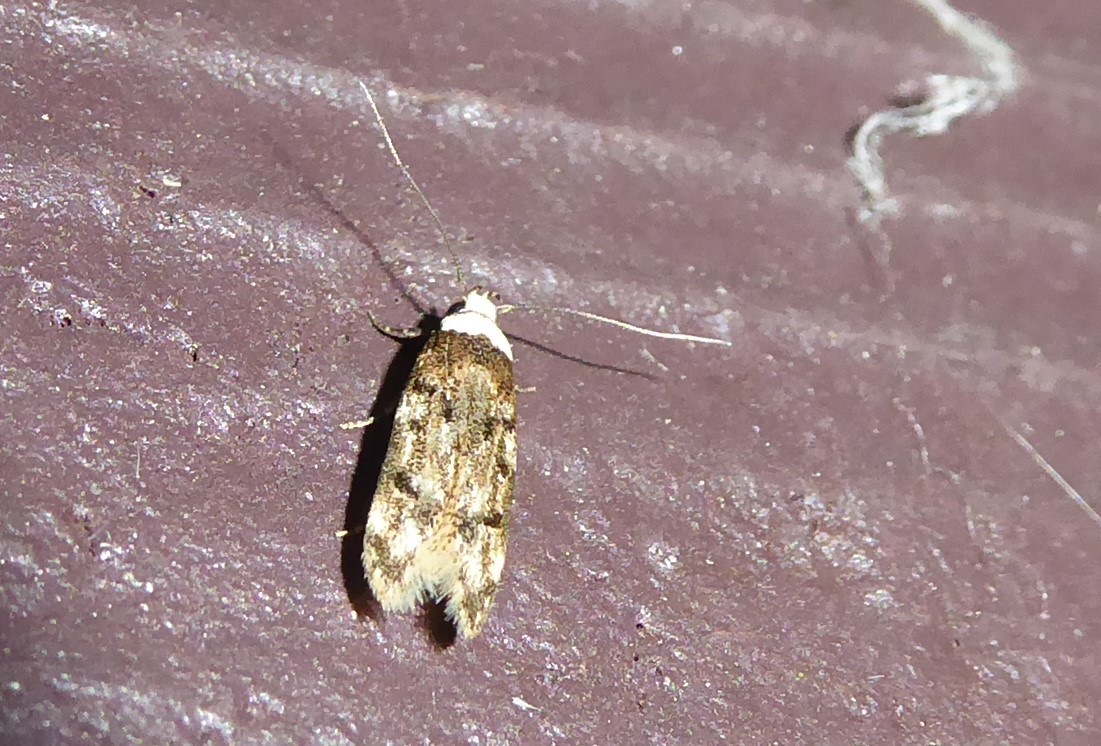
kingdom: Animalia
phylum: Arthropoda
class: Insecta
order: Lepidoptera
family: Oecophoridae
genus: Endrosis
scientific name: Endrosis sarcitrella
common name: White-shouldered house moth
